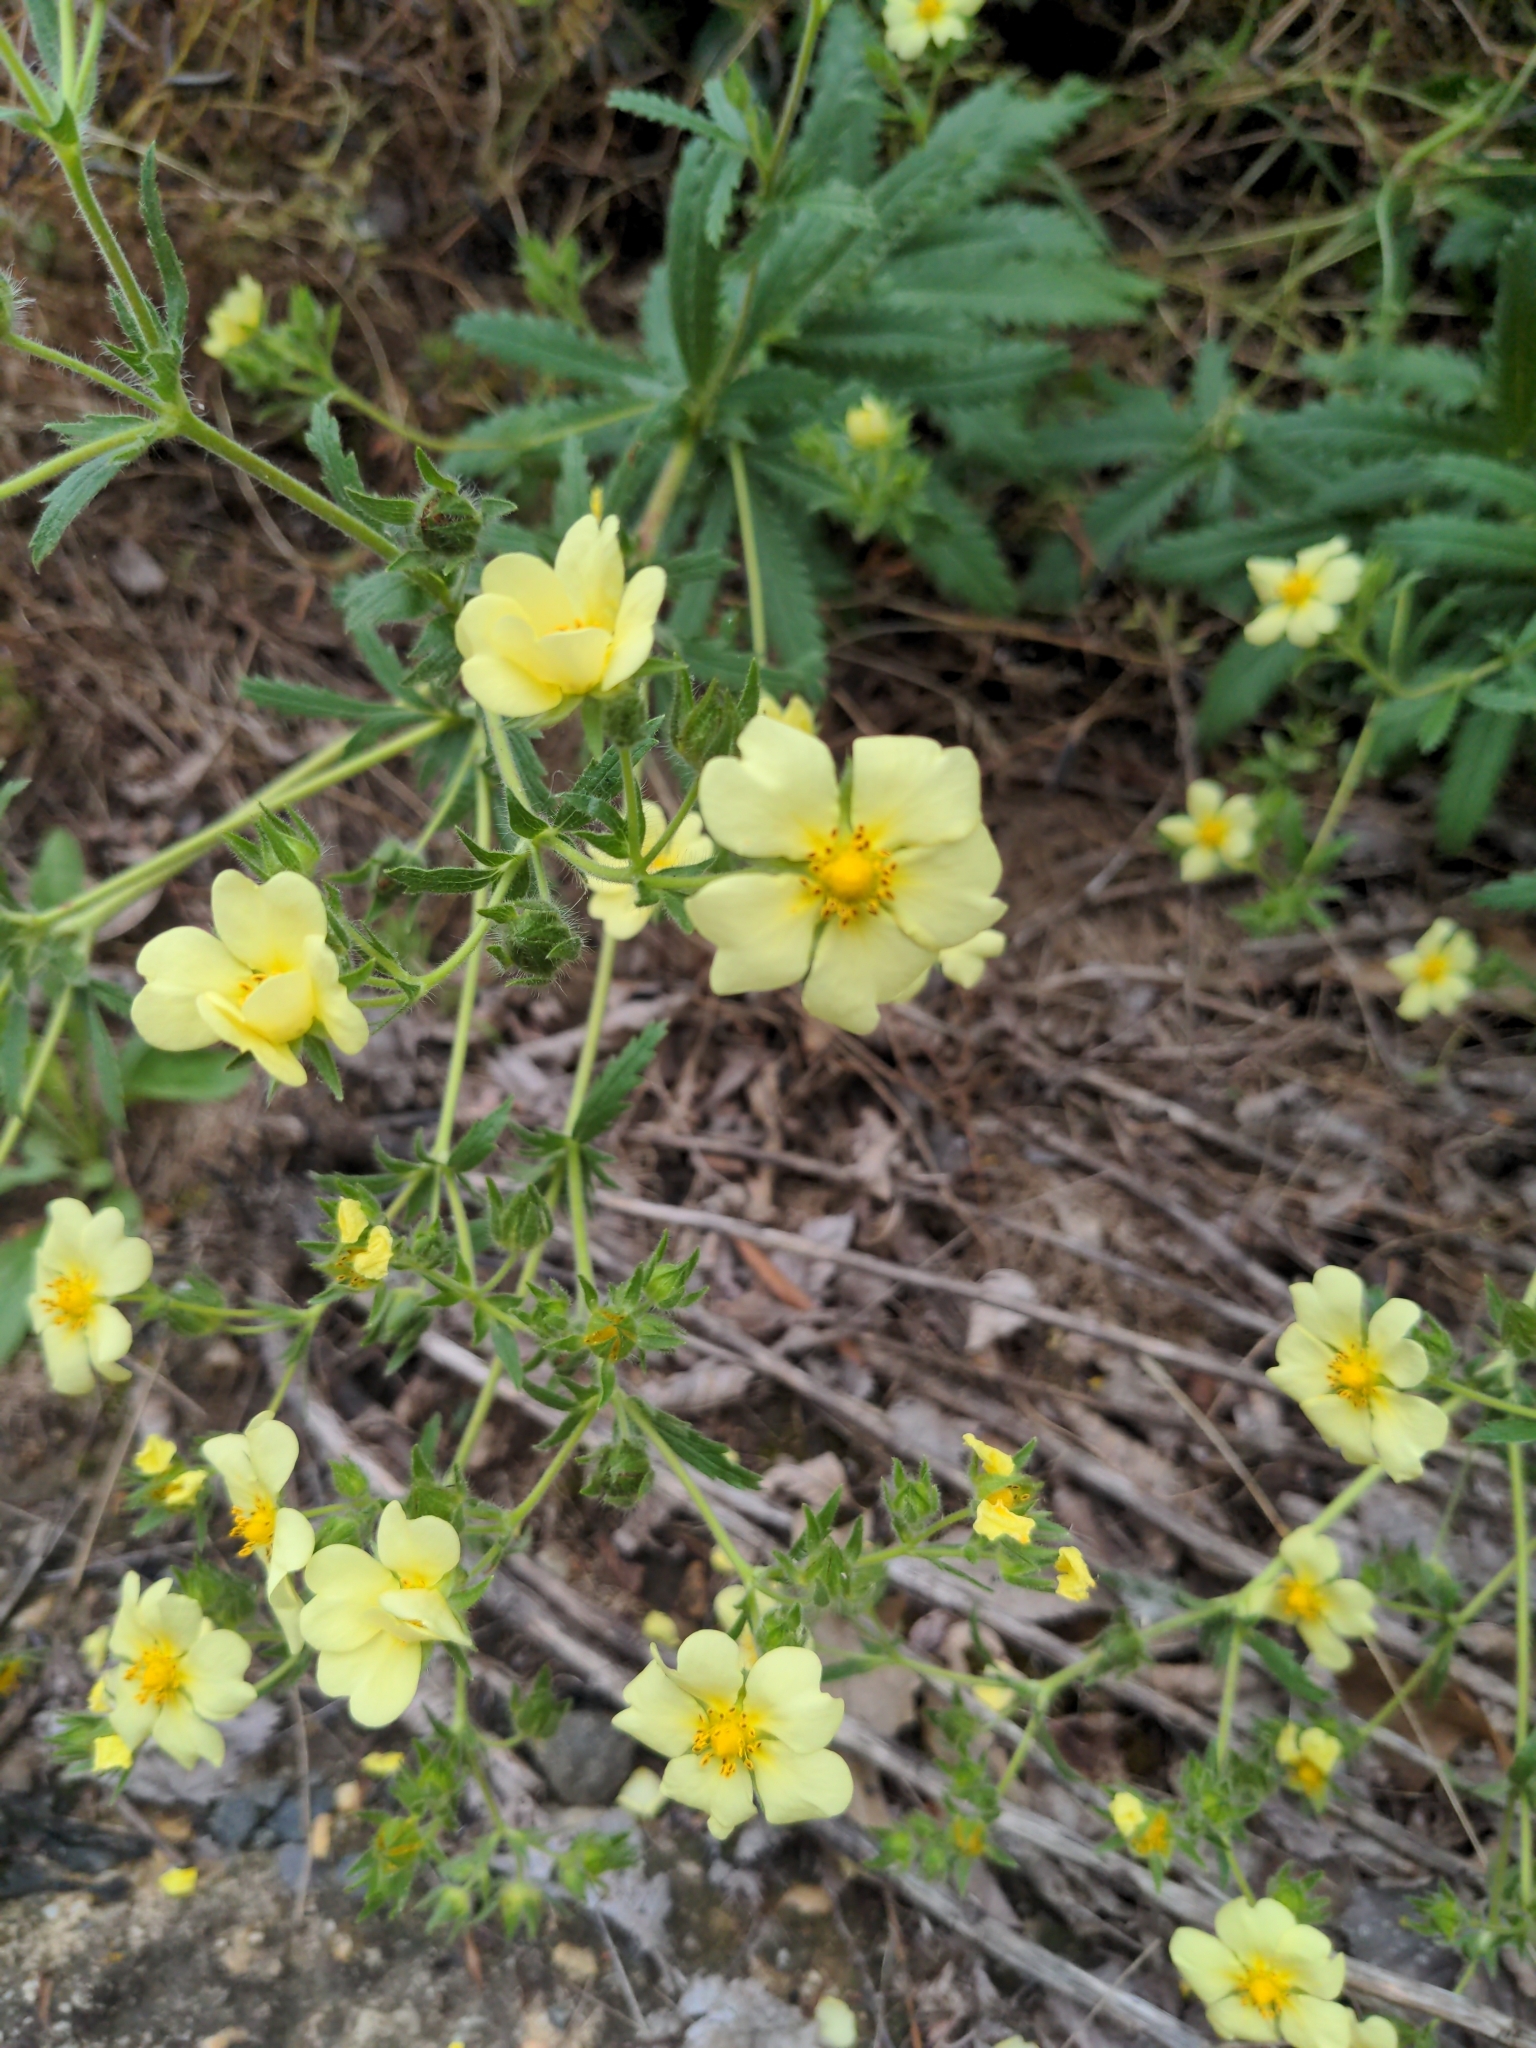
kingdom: Plantae
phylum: Tracheophyta
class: Magnoliopsida
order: Rosales
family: Rosaceae
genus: Potentilla
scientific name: Potentilla recta
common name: Sulphur cinquefoil
